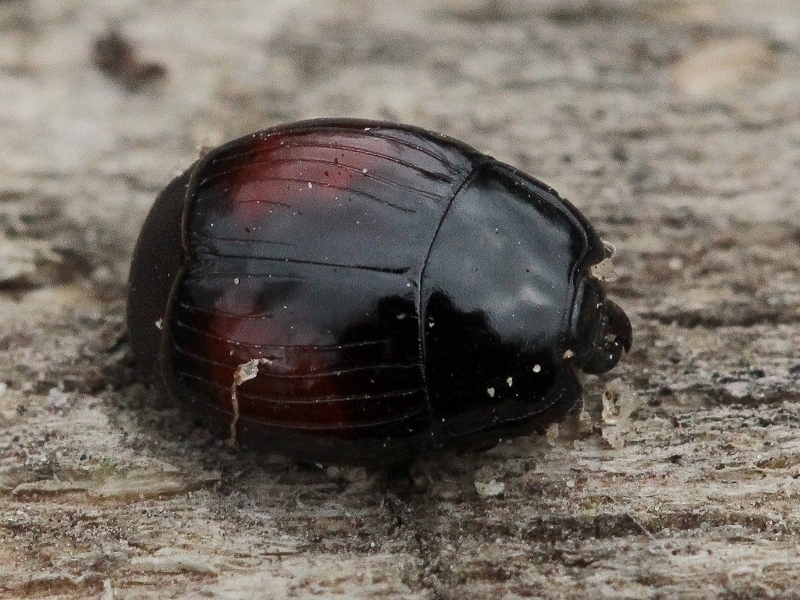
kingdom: Animalia
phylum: Arthropoda
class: Insecta
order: Coleoptera
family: Histeridae
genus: Margarinotus
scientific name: Margarinotus purpurascens
